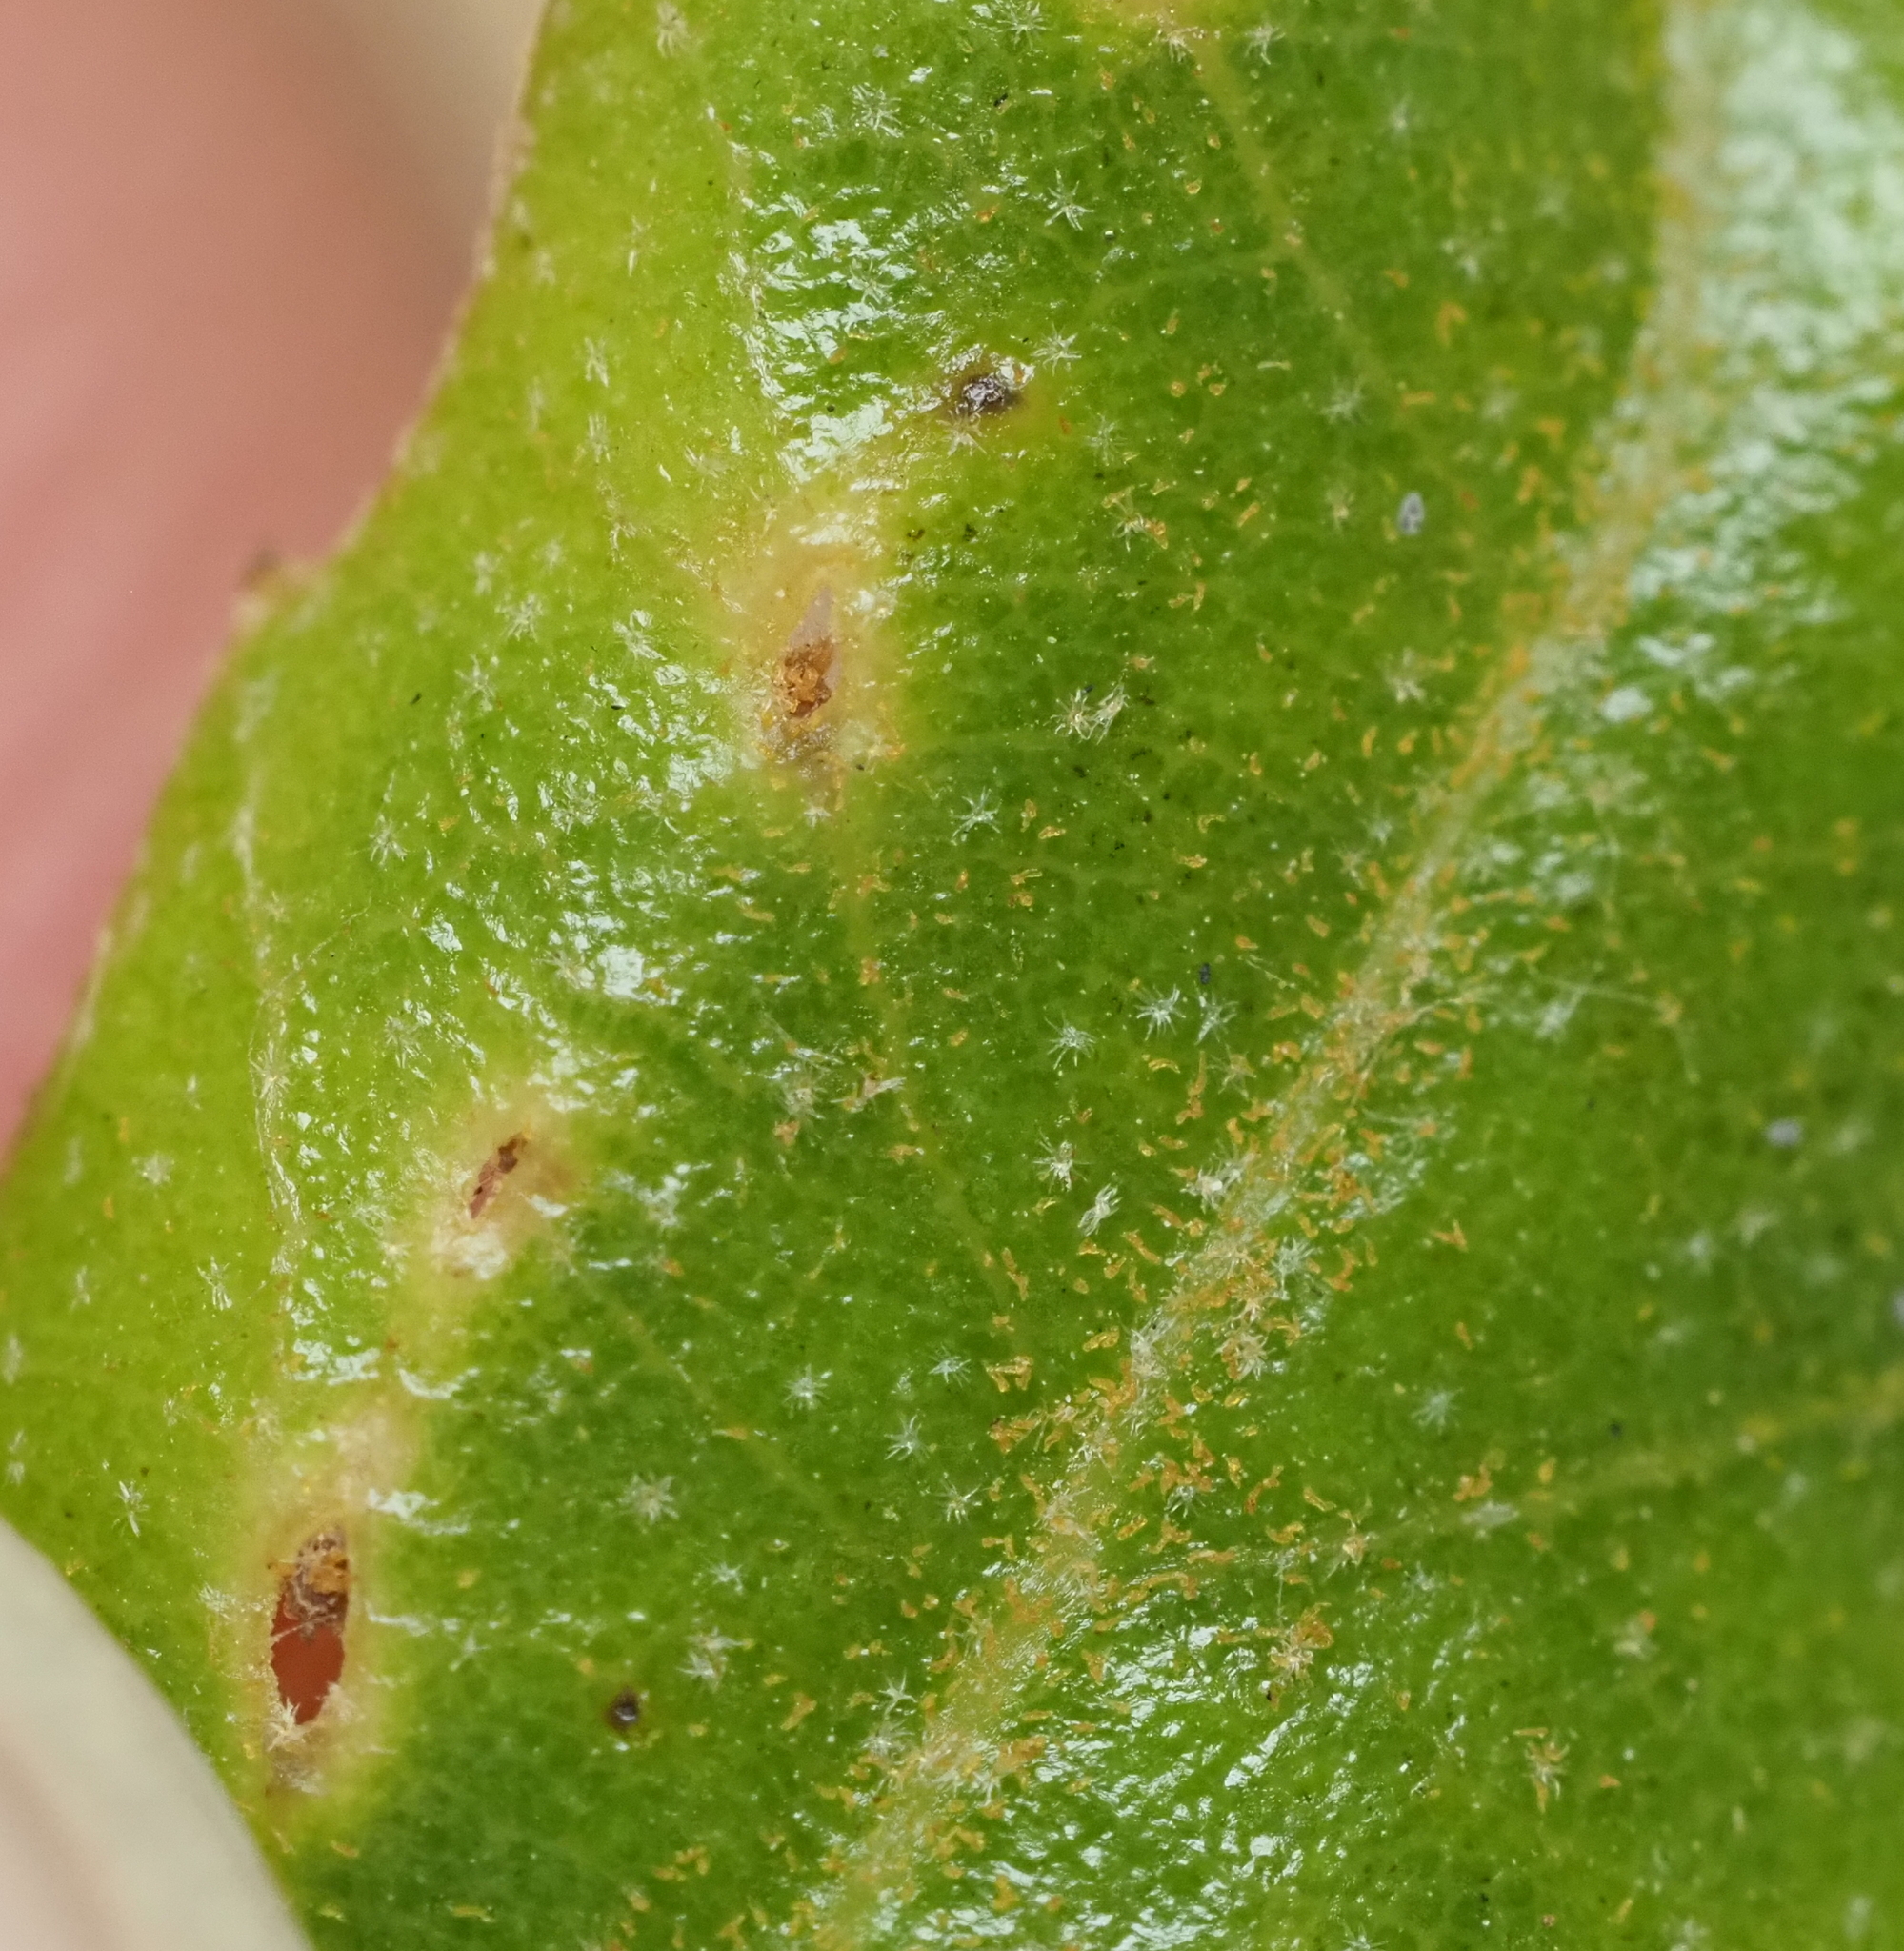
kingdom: Animalia
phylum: Arthropoda
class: Insecta
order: Hymenoptera
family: Cynipidae
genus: Belonocnema
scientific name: Belonocnema kinseyi
